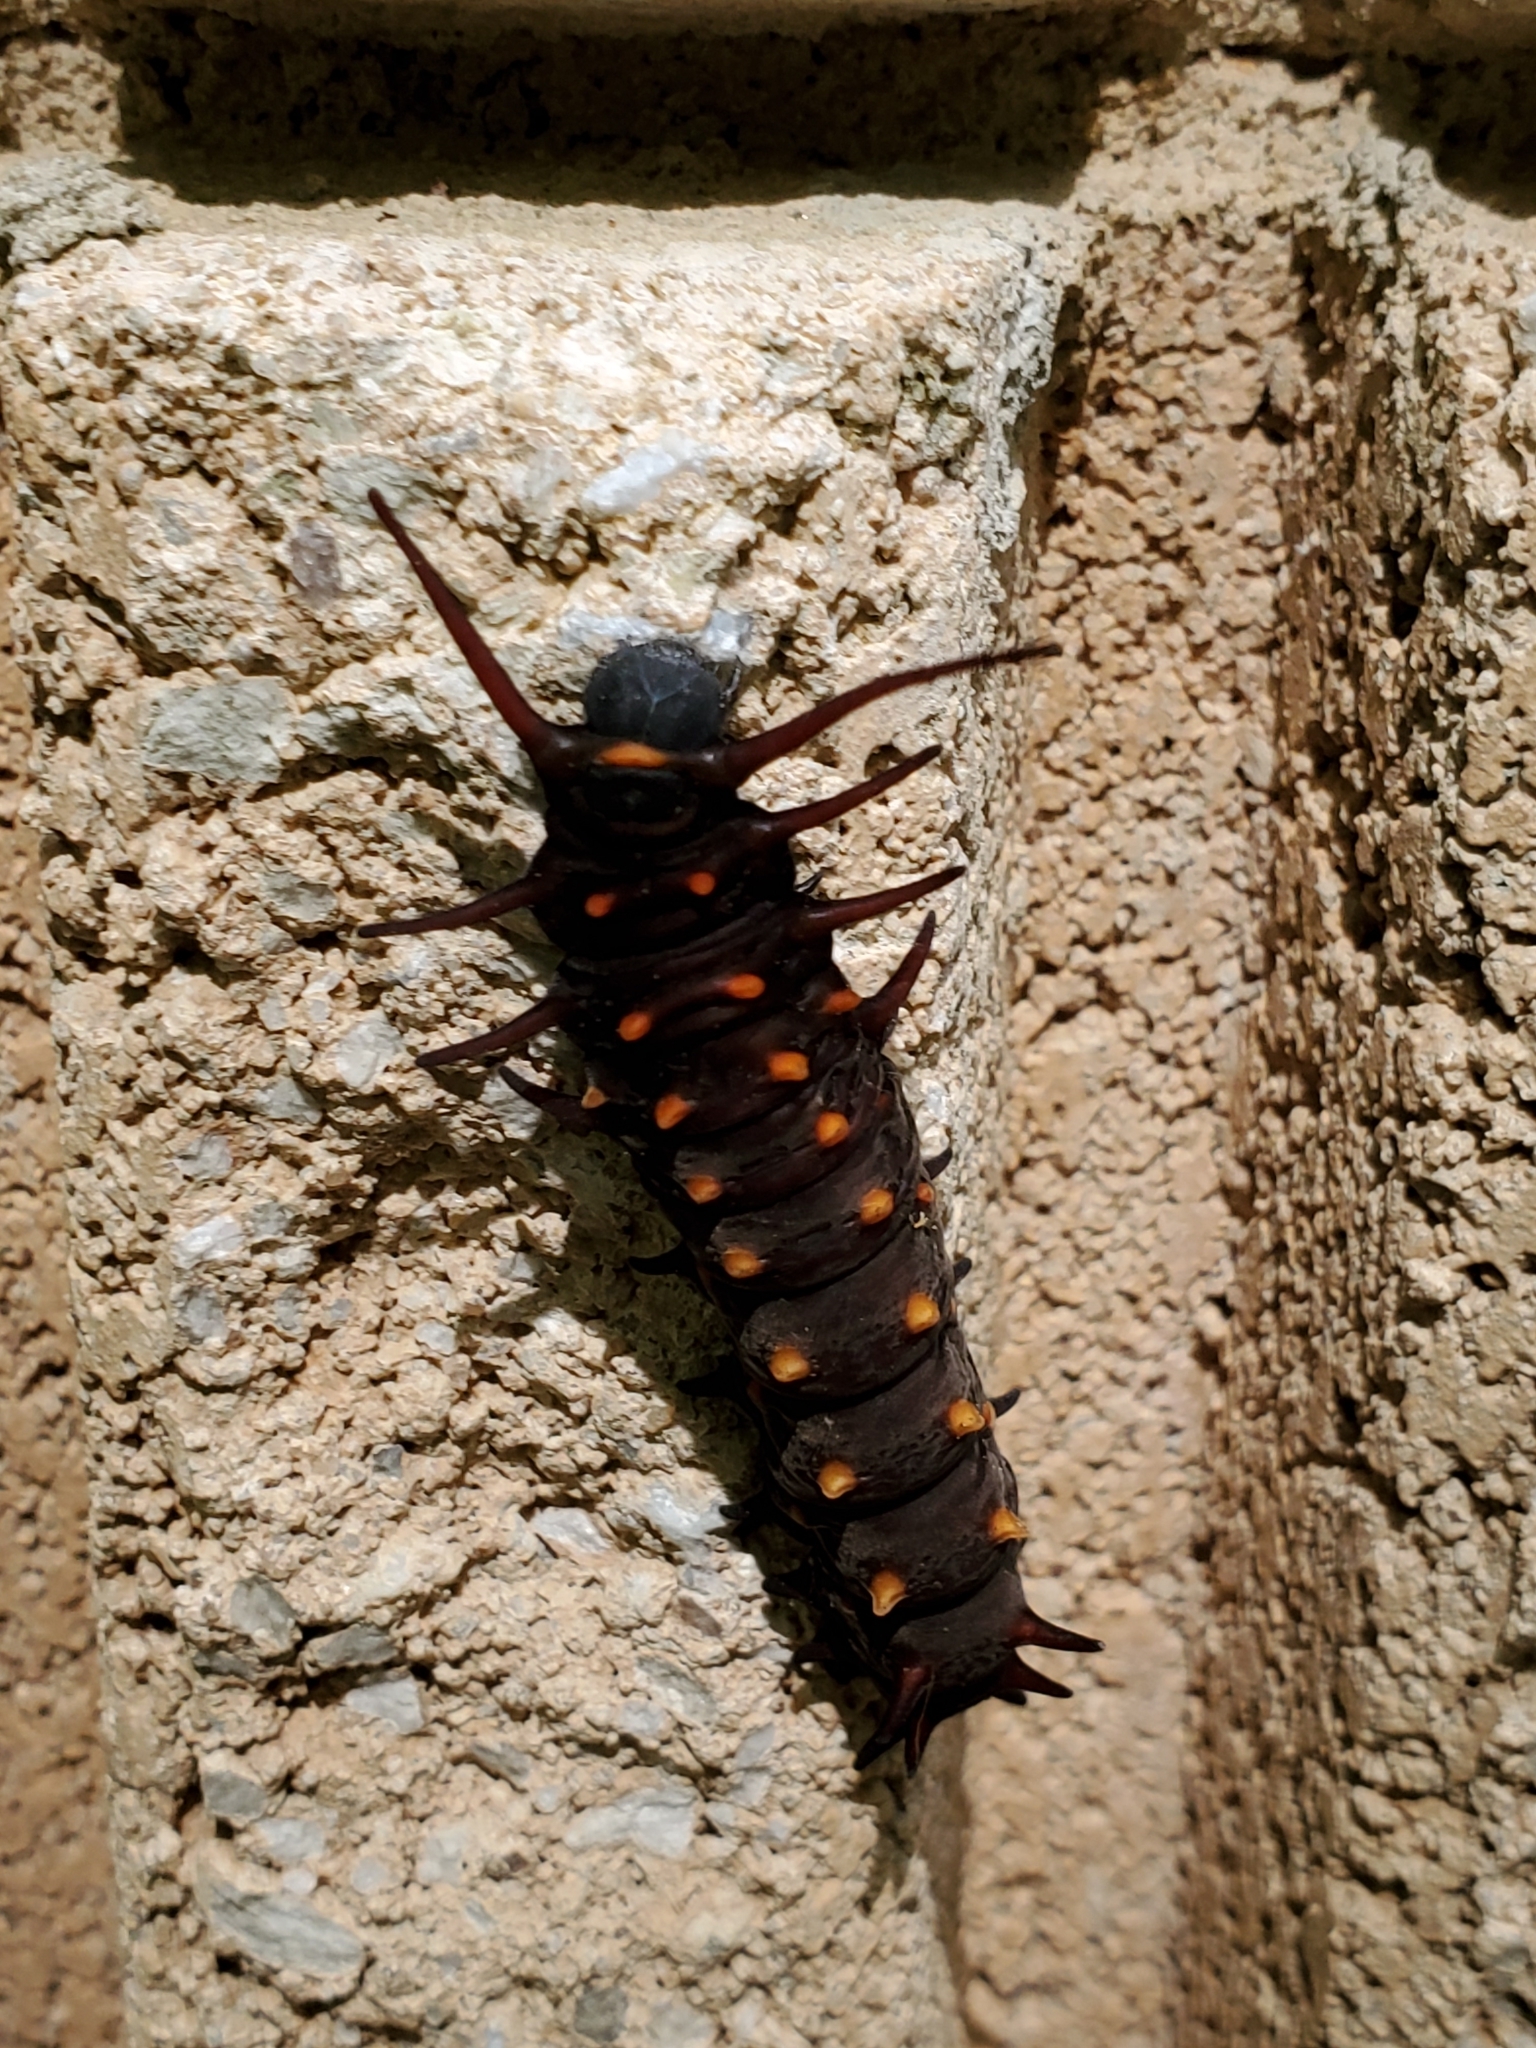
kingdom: Animalia
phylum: Arthropoda
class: Insecta
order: Lepidoptera
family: Papilionidae
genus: Battus
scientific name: Battus philenor
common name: Pipevine swallowtail
